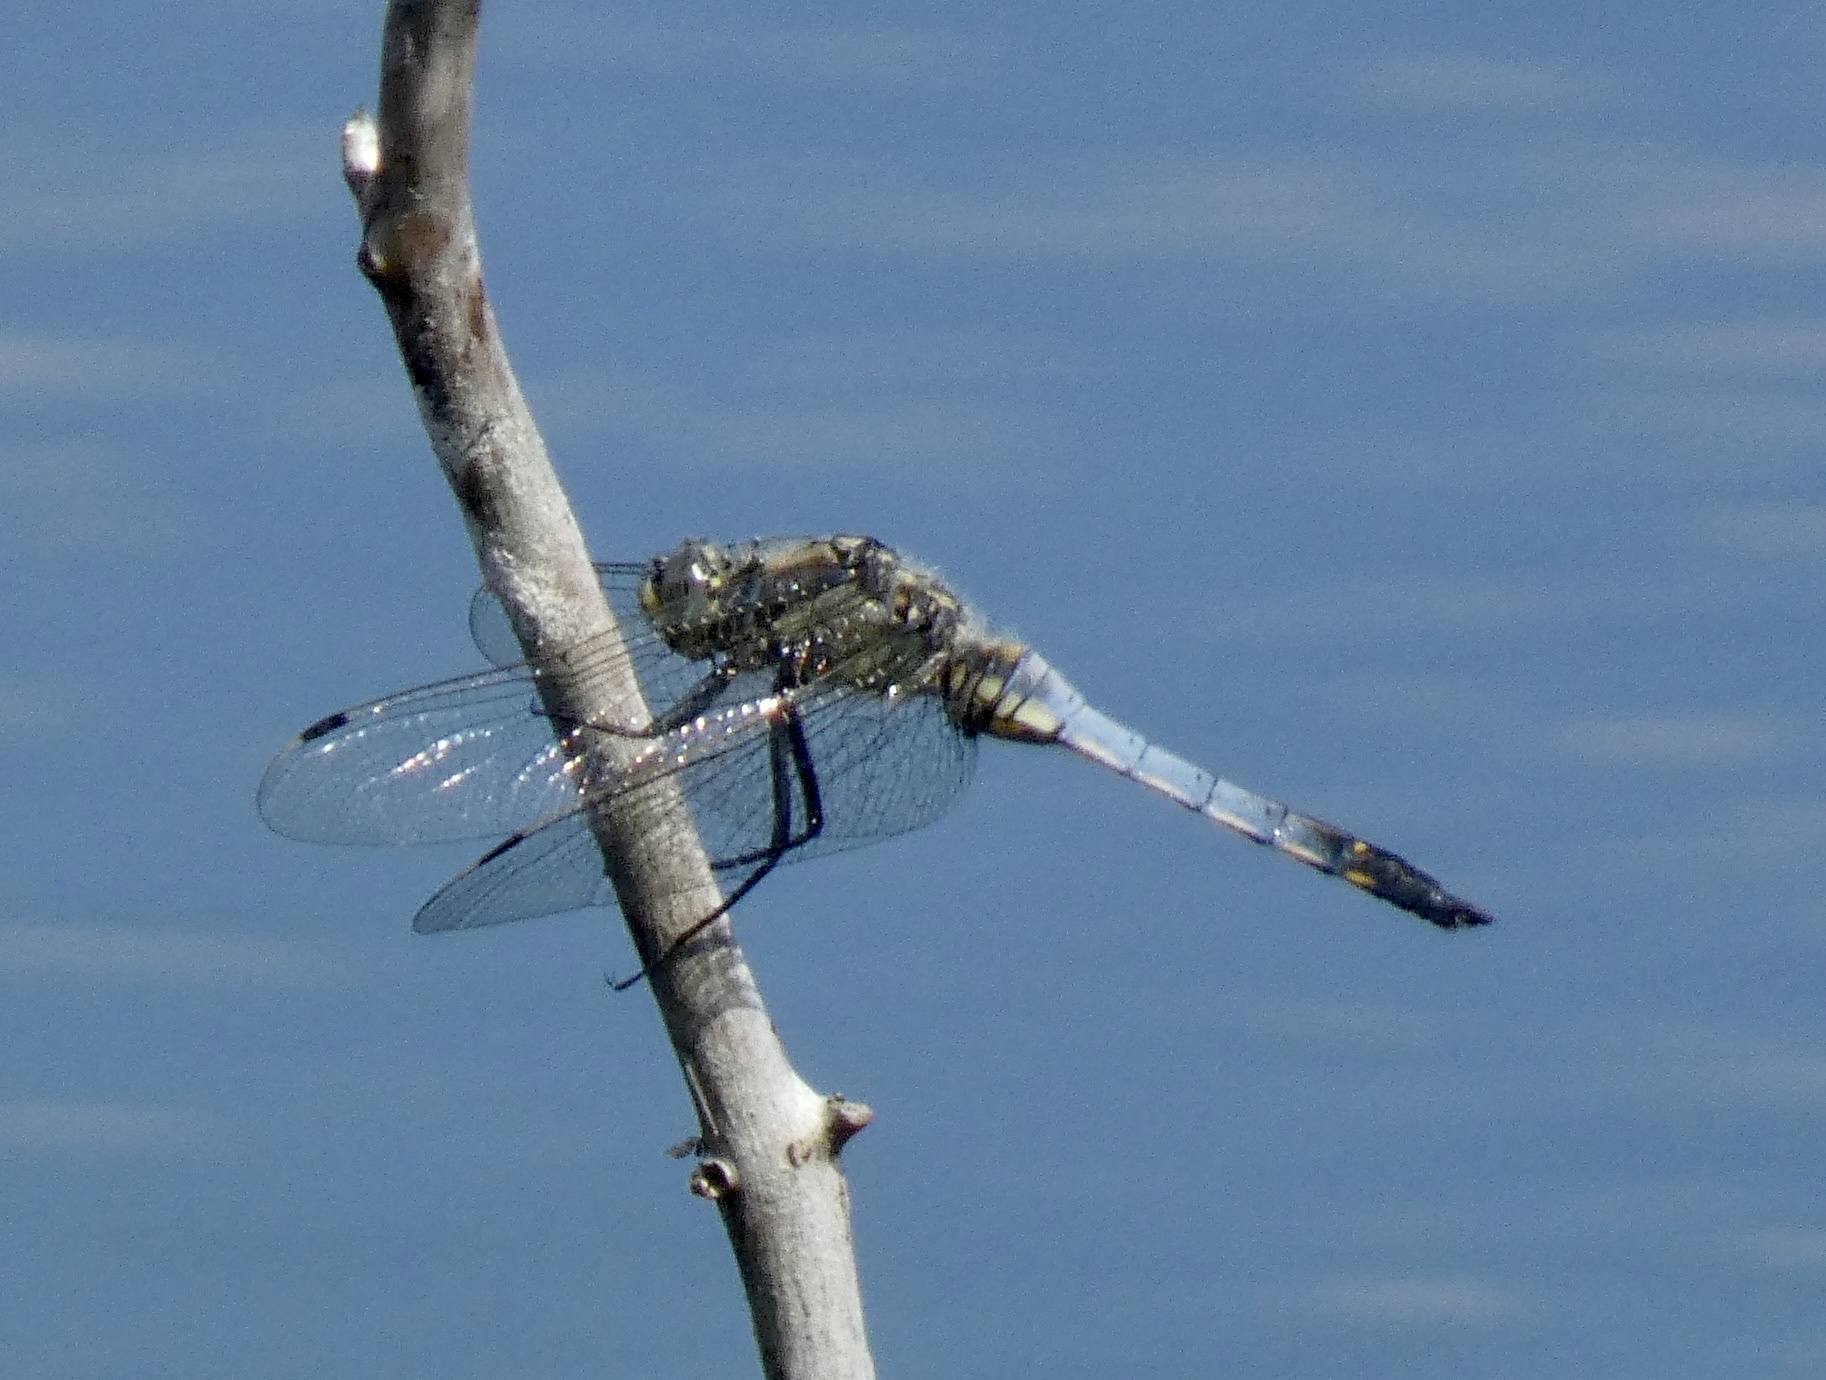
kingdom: Animalia
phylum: Arthropoda
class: Insecta
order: Odonata
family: Libellulidae
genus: Orthetrum
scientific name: Orthetrum cancellatum
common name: Black-tailed skimmer
